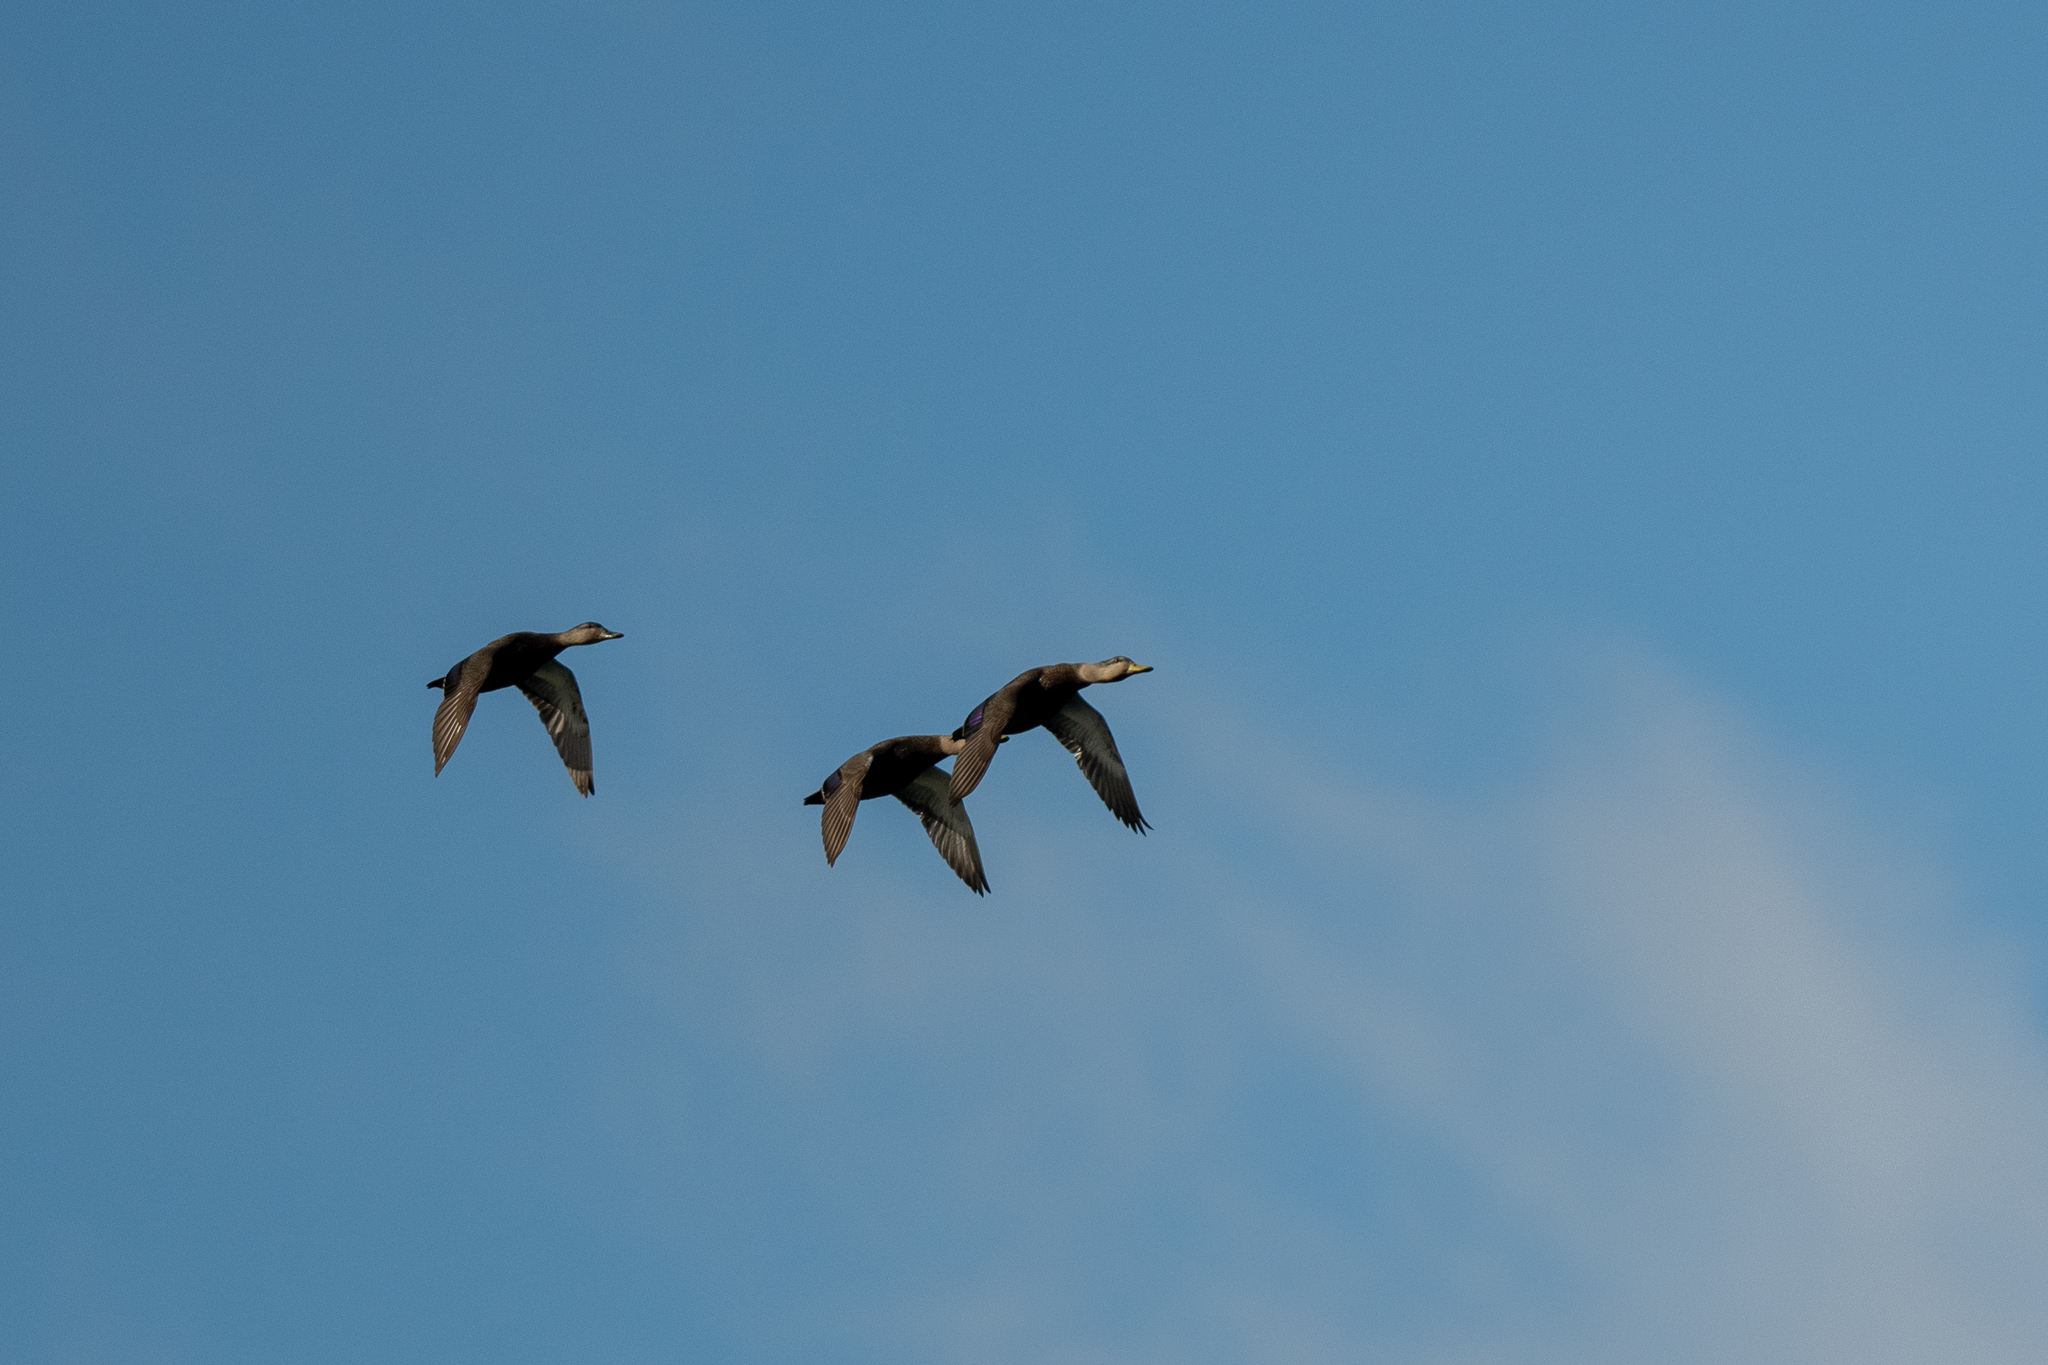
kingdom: Animalia
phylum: Chordata
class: Aves
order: Anseriformes
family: Anatidae
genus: Anas
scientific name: Anas rubripes
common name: American black duck
